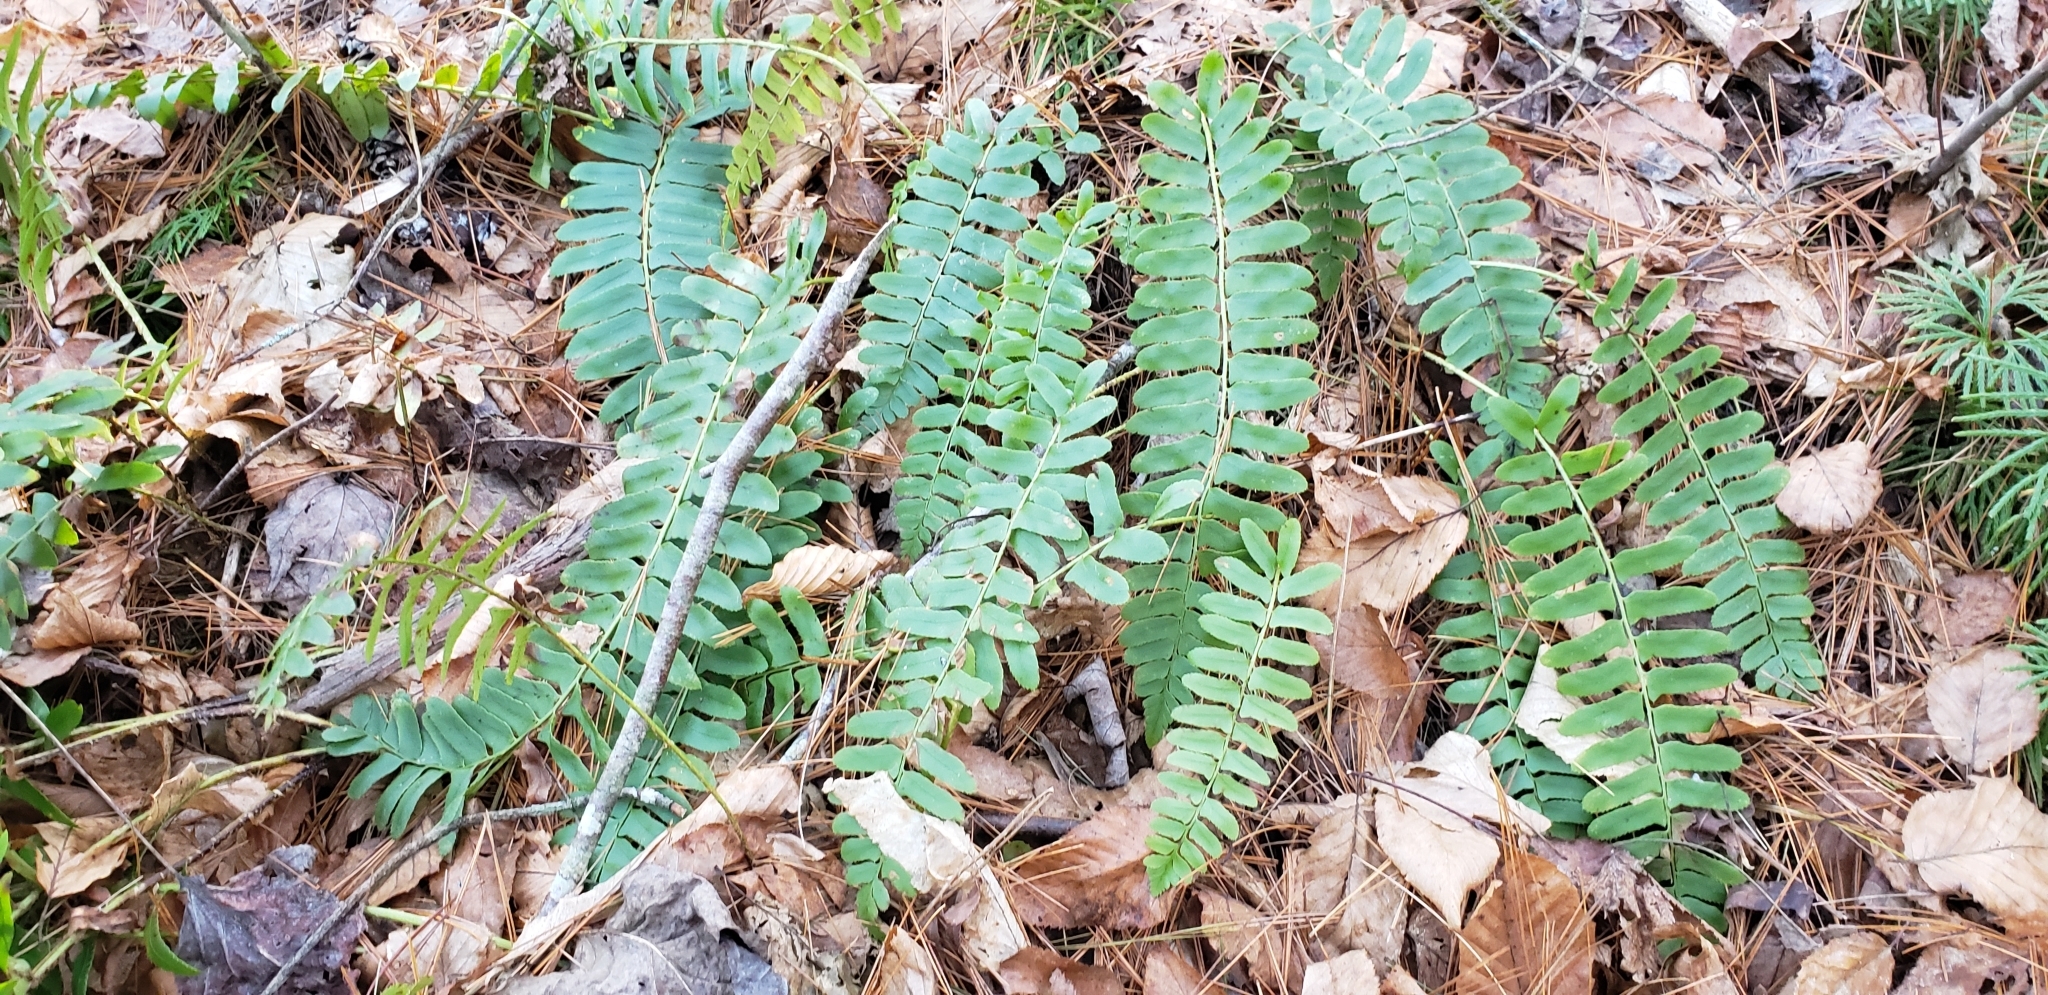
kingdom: Plantae
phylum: Tracheophyta
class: Polypodiopsida
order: Polypodiales
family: Dryopteridaceae
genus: Polystichum
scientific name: Polystichum acrostichoides
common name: Christmas fern
